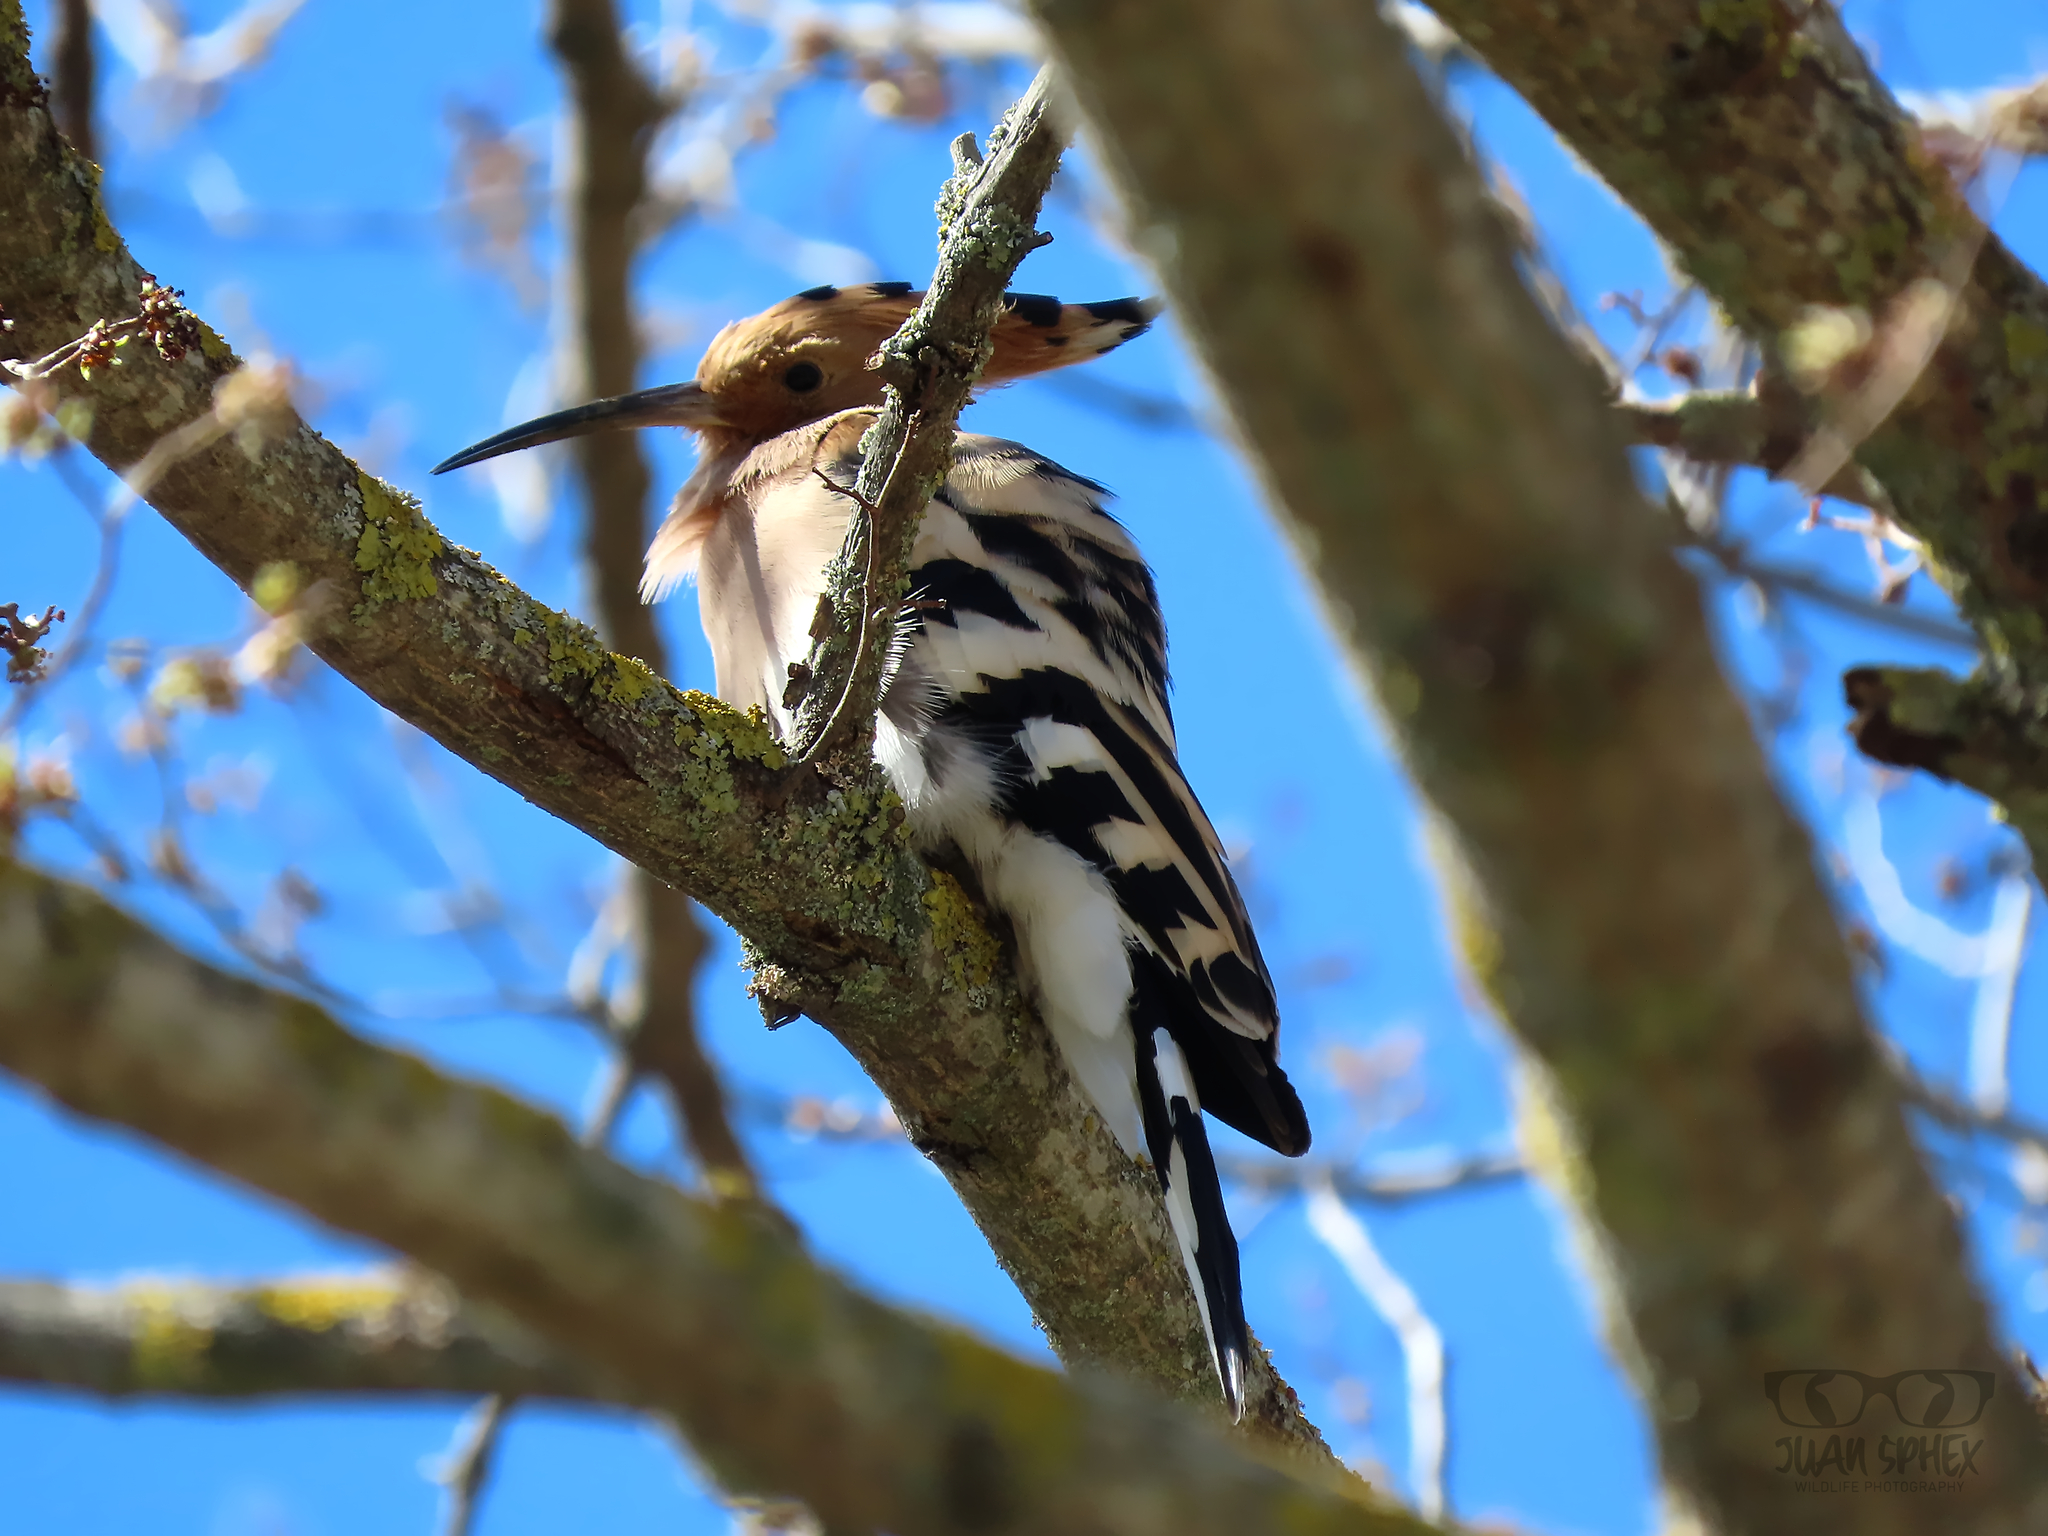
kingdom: Animalia
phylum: Chordata
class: Aves
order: Bucerotiformes
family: Upupidae
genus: Upupa
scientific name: Upupa epops
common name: Eurasian hoopoe
